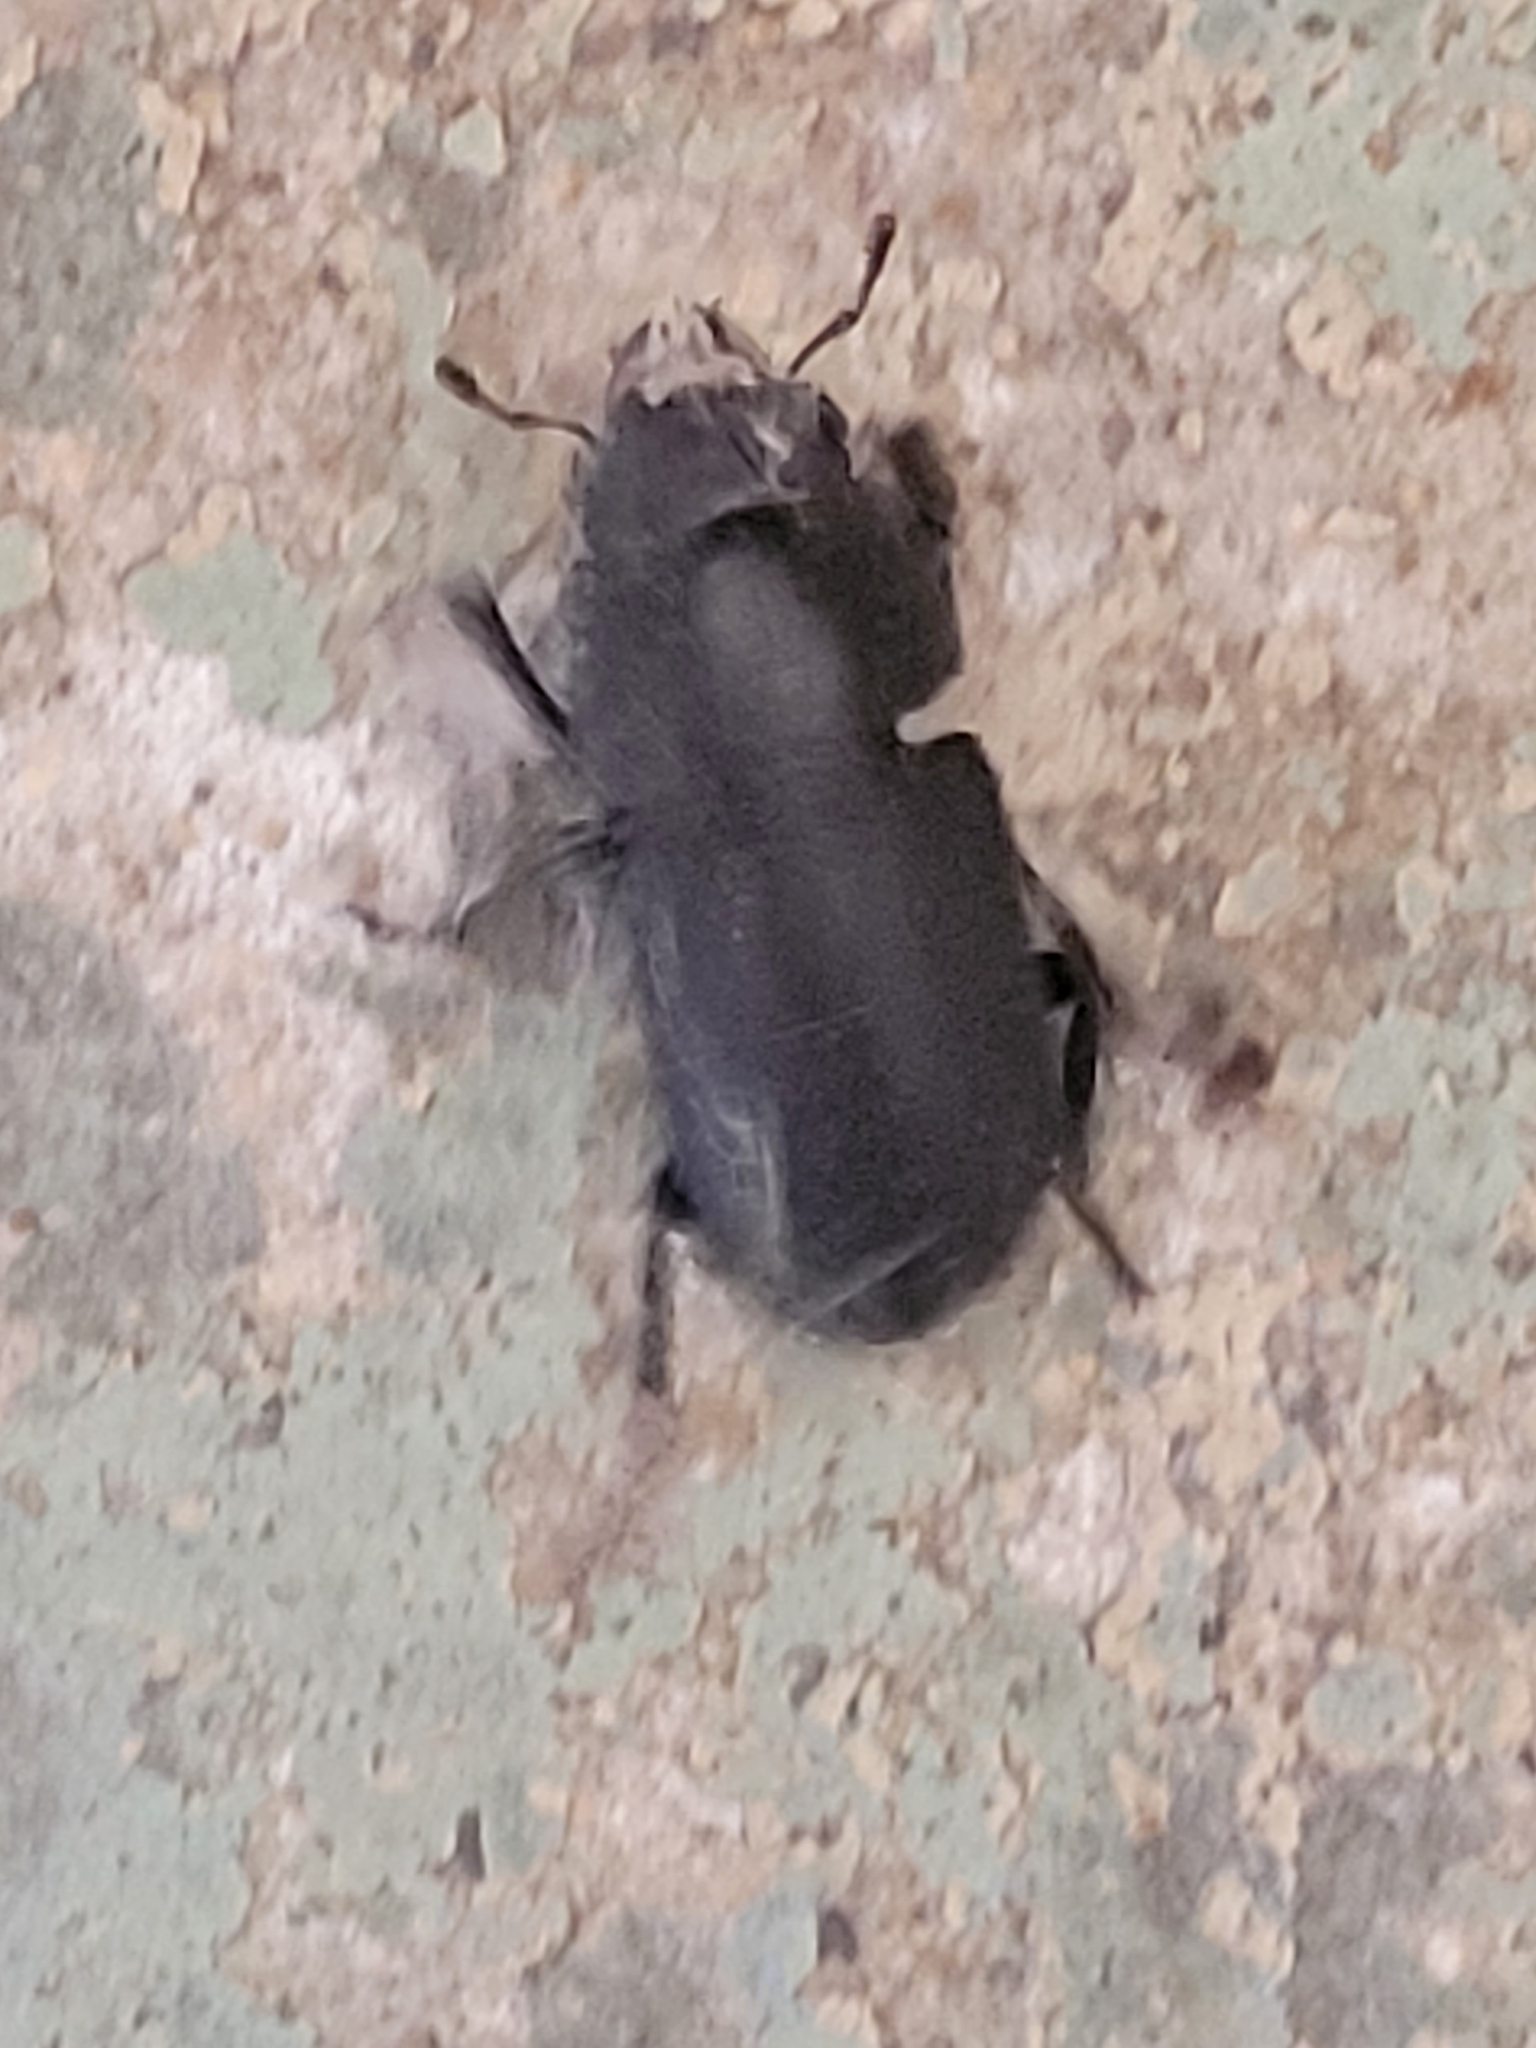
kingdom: Animalia
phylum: Arthropoda
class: Insecta
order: Coleoptera
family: Lucanidae
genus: Dorcus
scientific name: Dorcus parallelipipedus
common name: Lesser stag beetle
